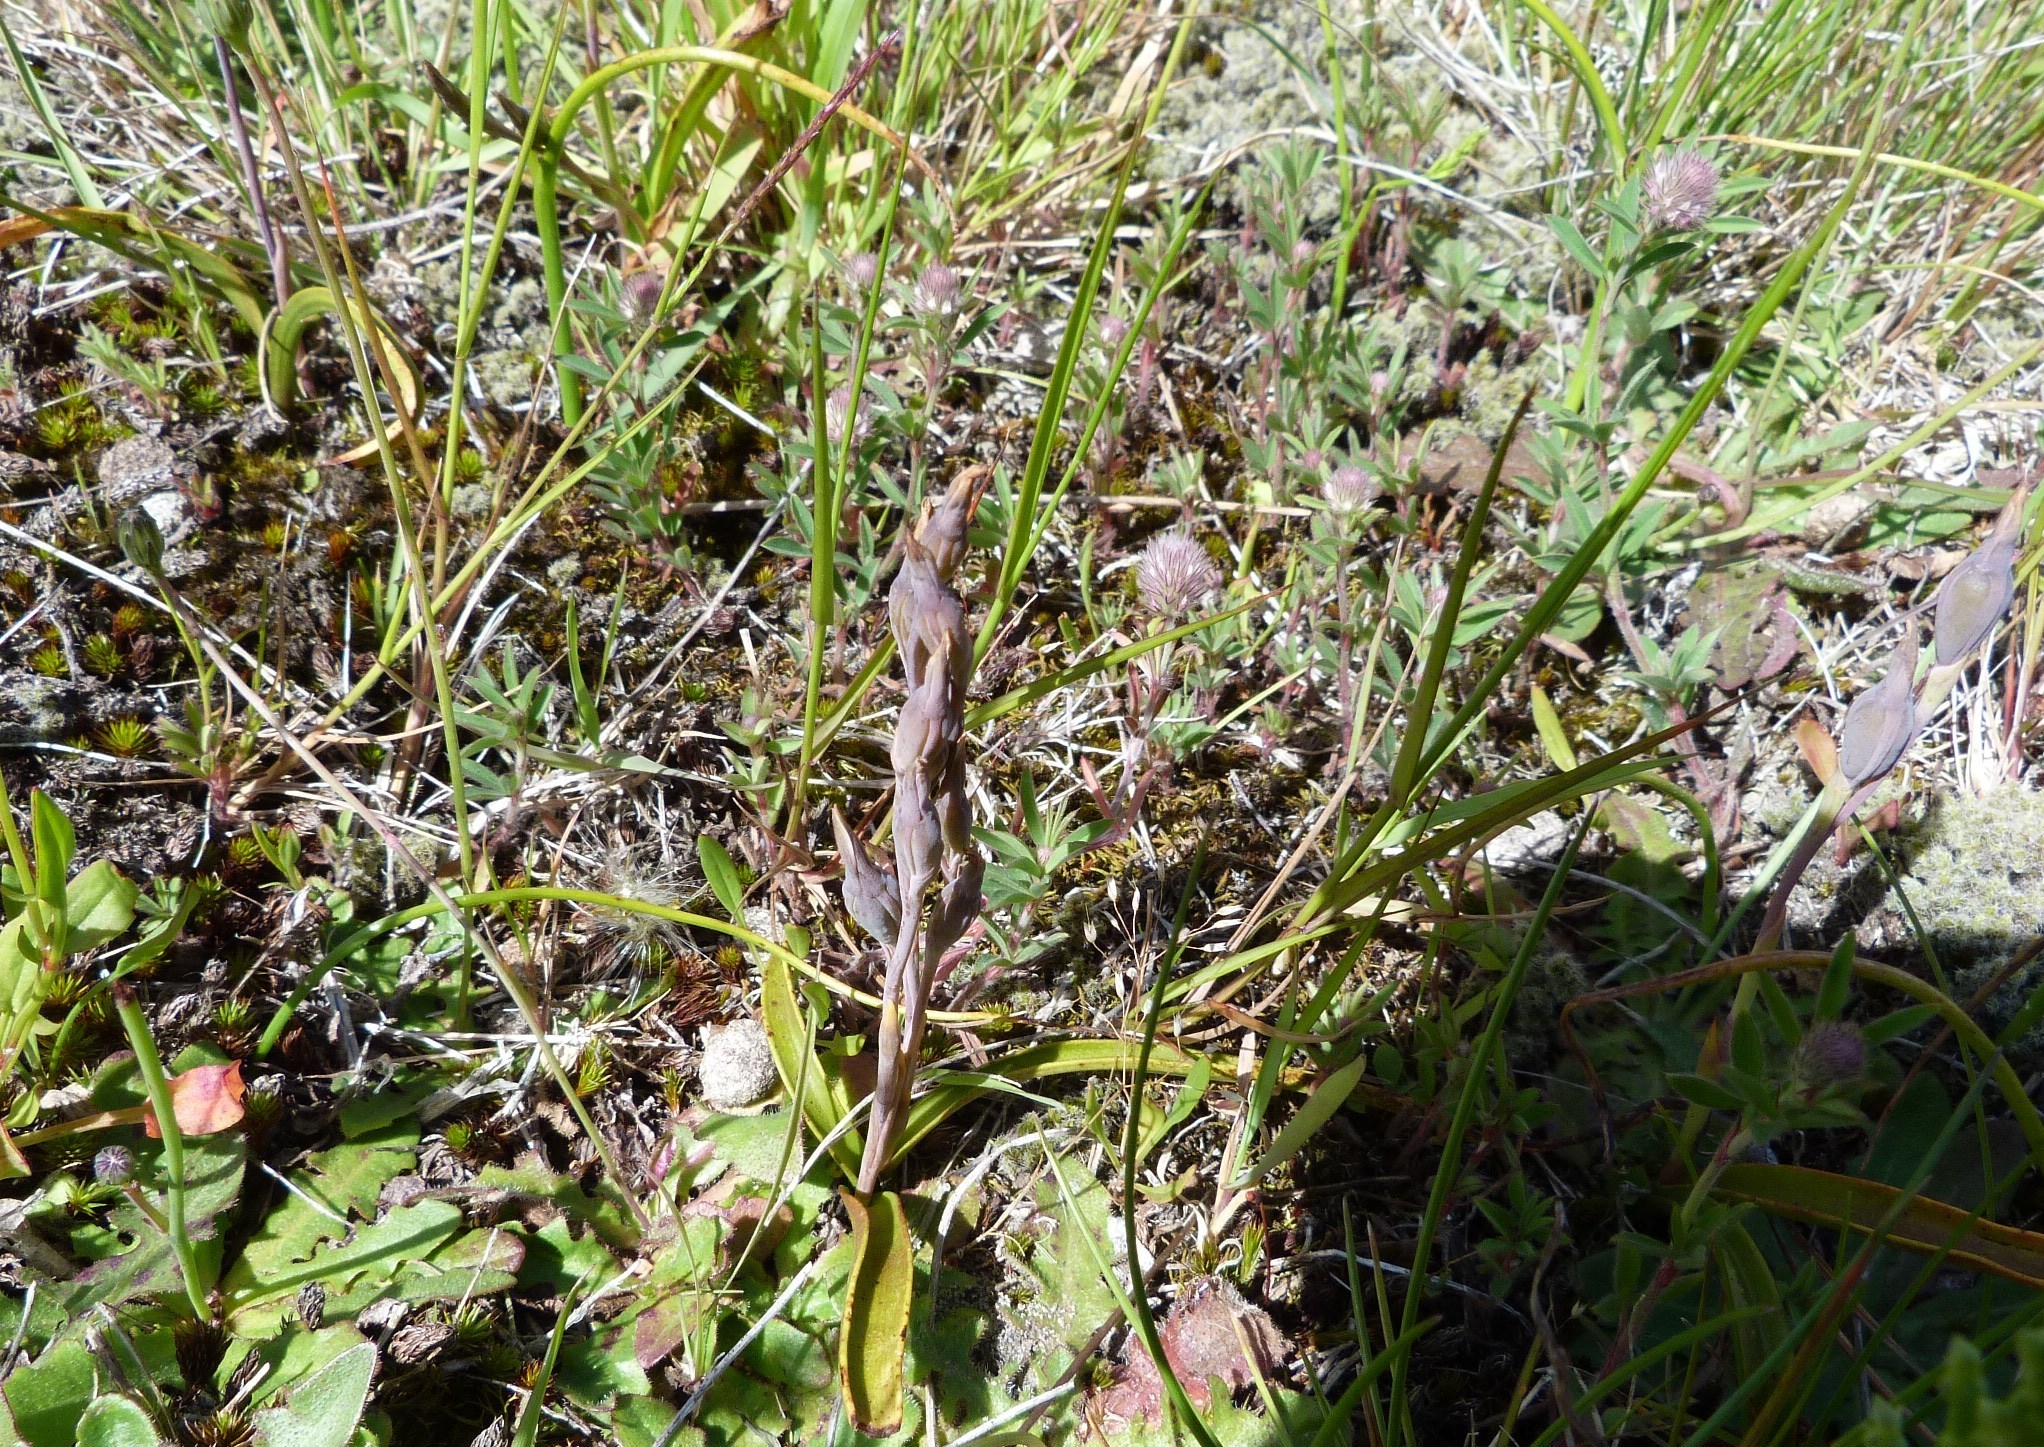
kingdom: Plantae
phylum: Tracheophyta
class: Liliopsida
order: Asparagales
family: Orchidaceae
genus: Thelymitra
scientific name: Thelymitra longifolia
